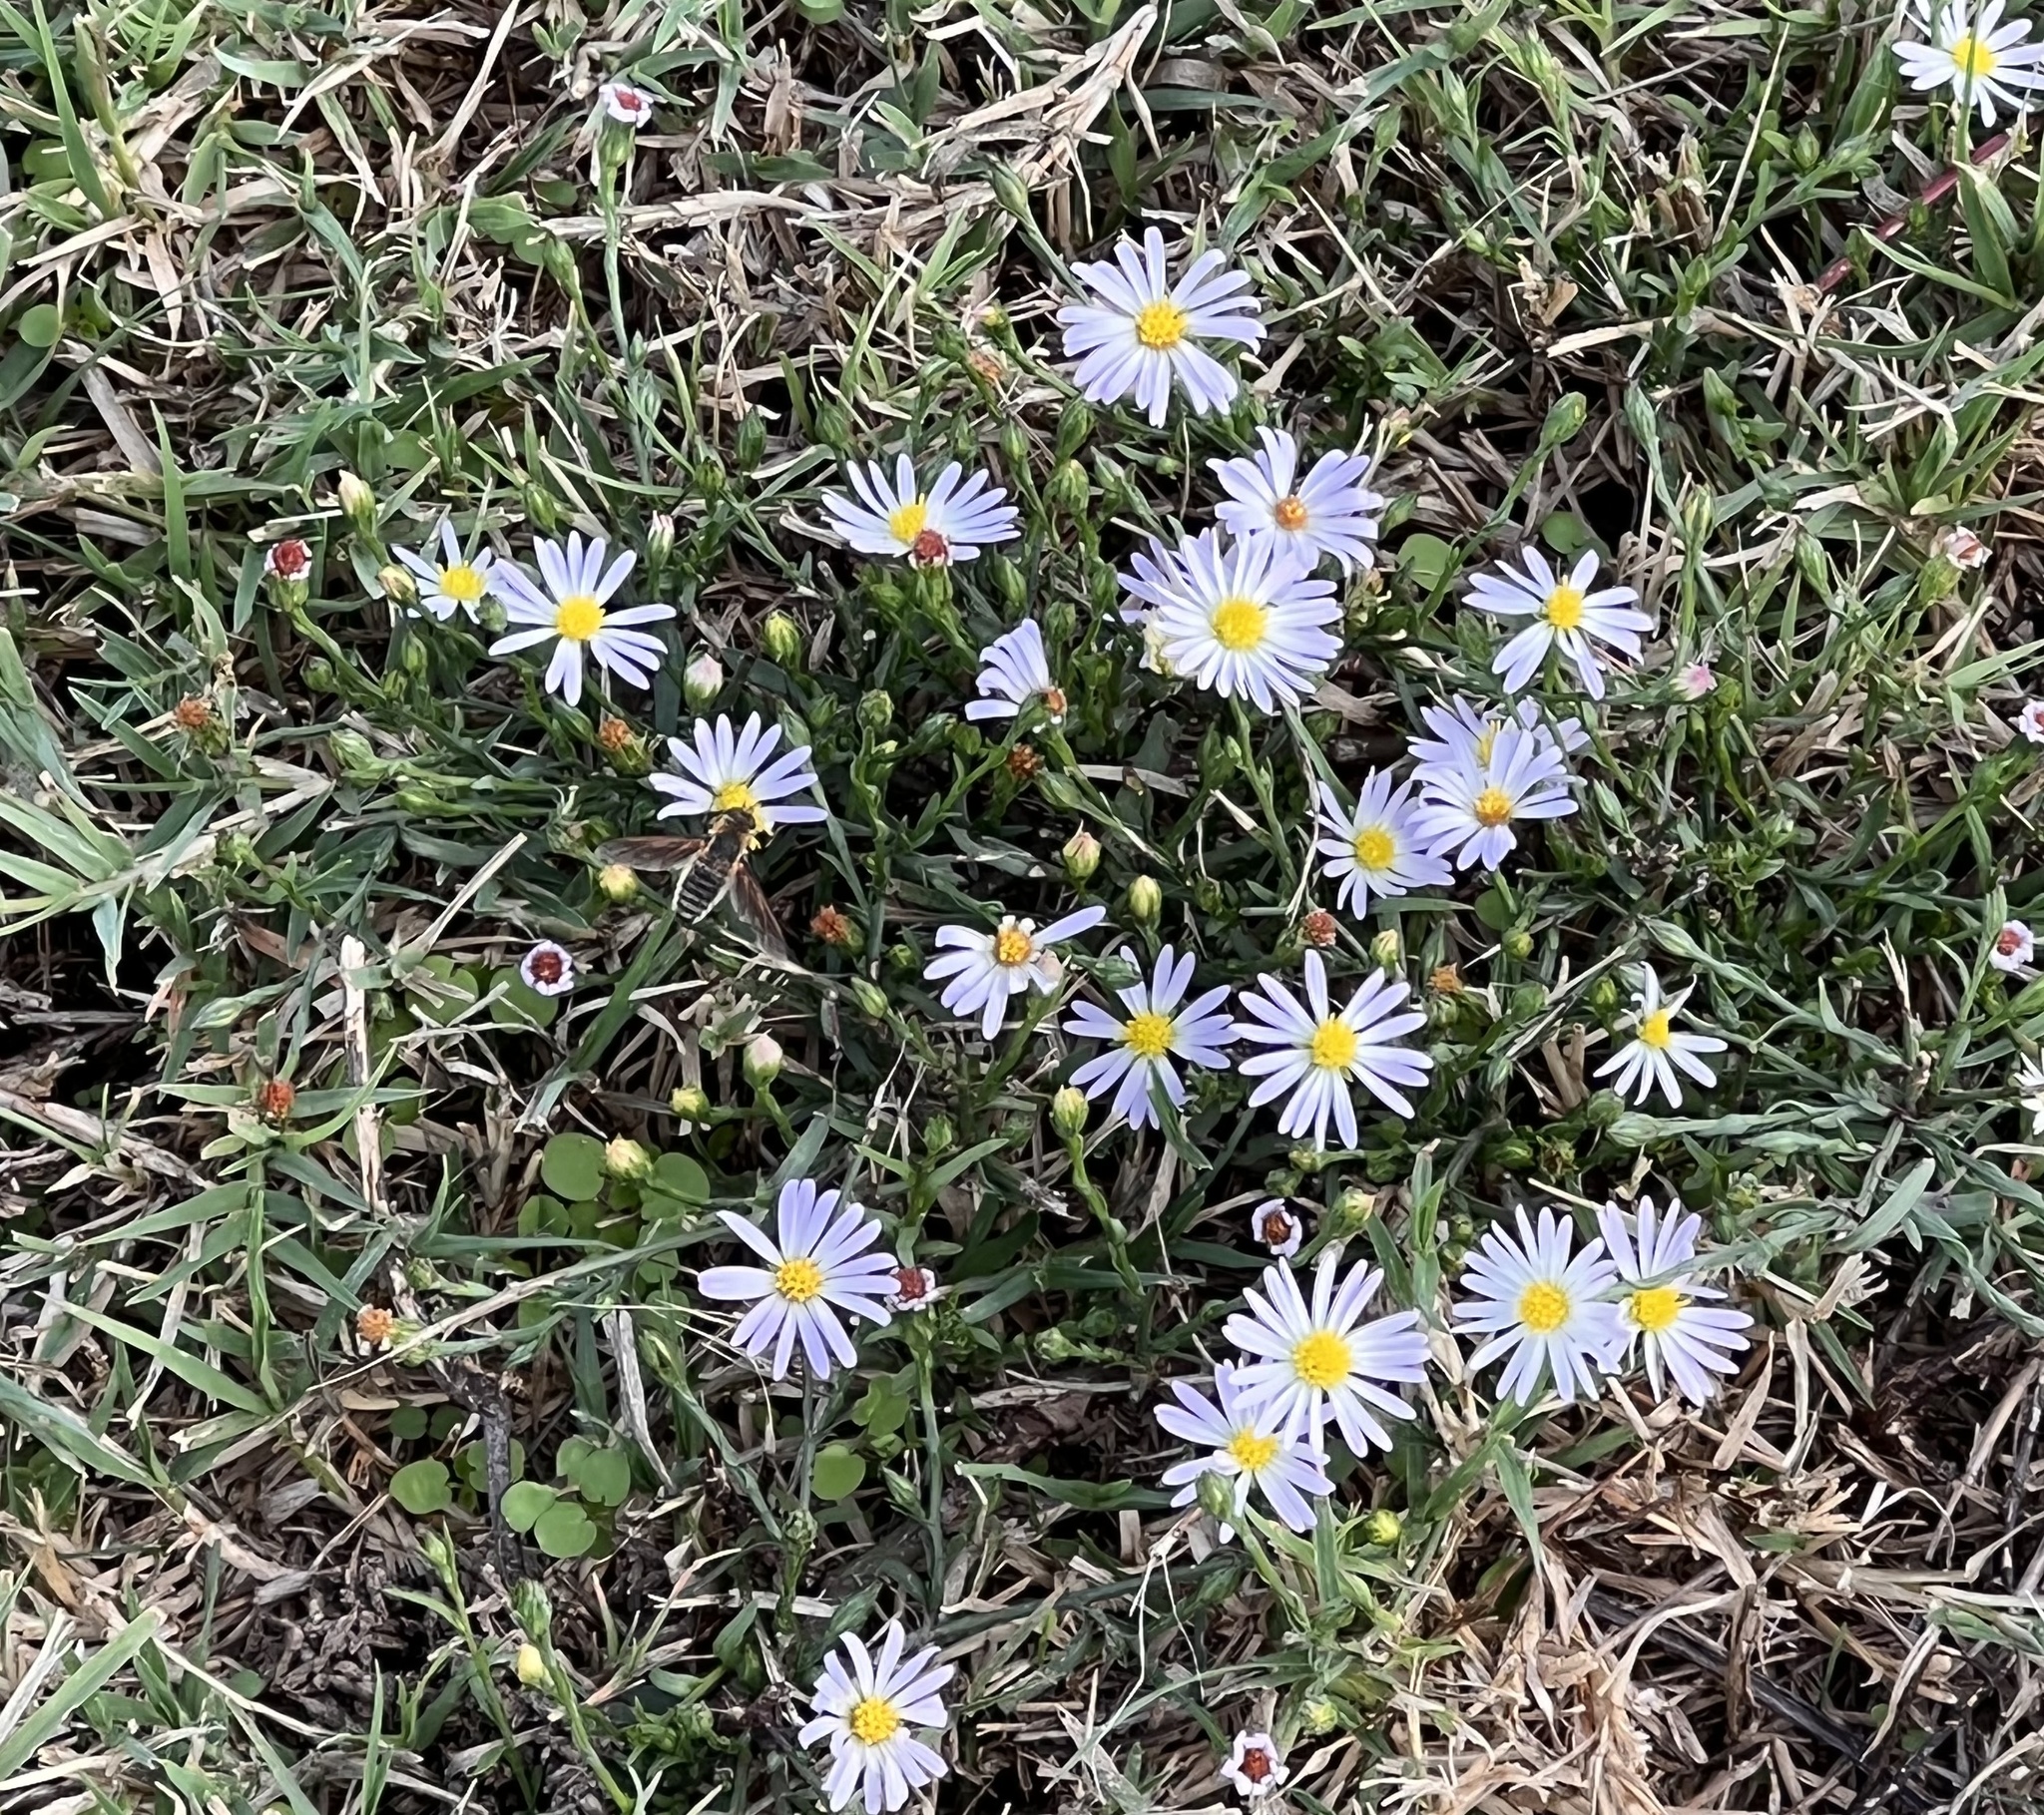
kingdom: Plantae
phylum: Tracheophyta
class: Magnoliopsida
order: Asterales
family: Asteraceae
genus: Symphyotrichum
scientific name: Symphyotrichum divaricatum
